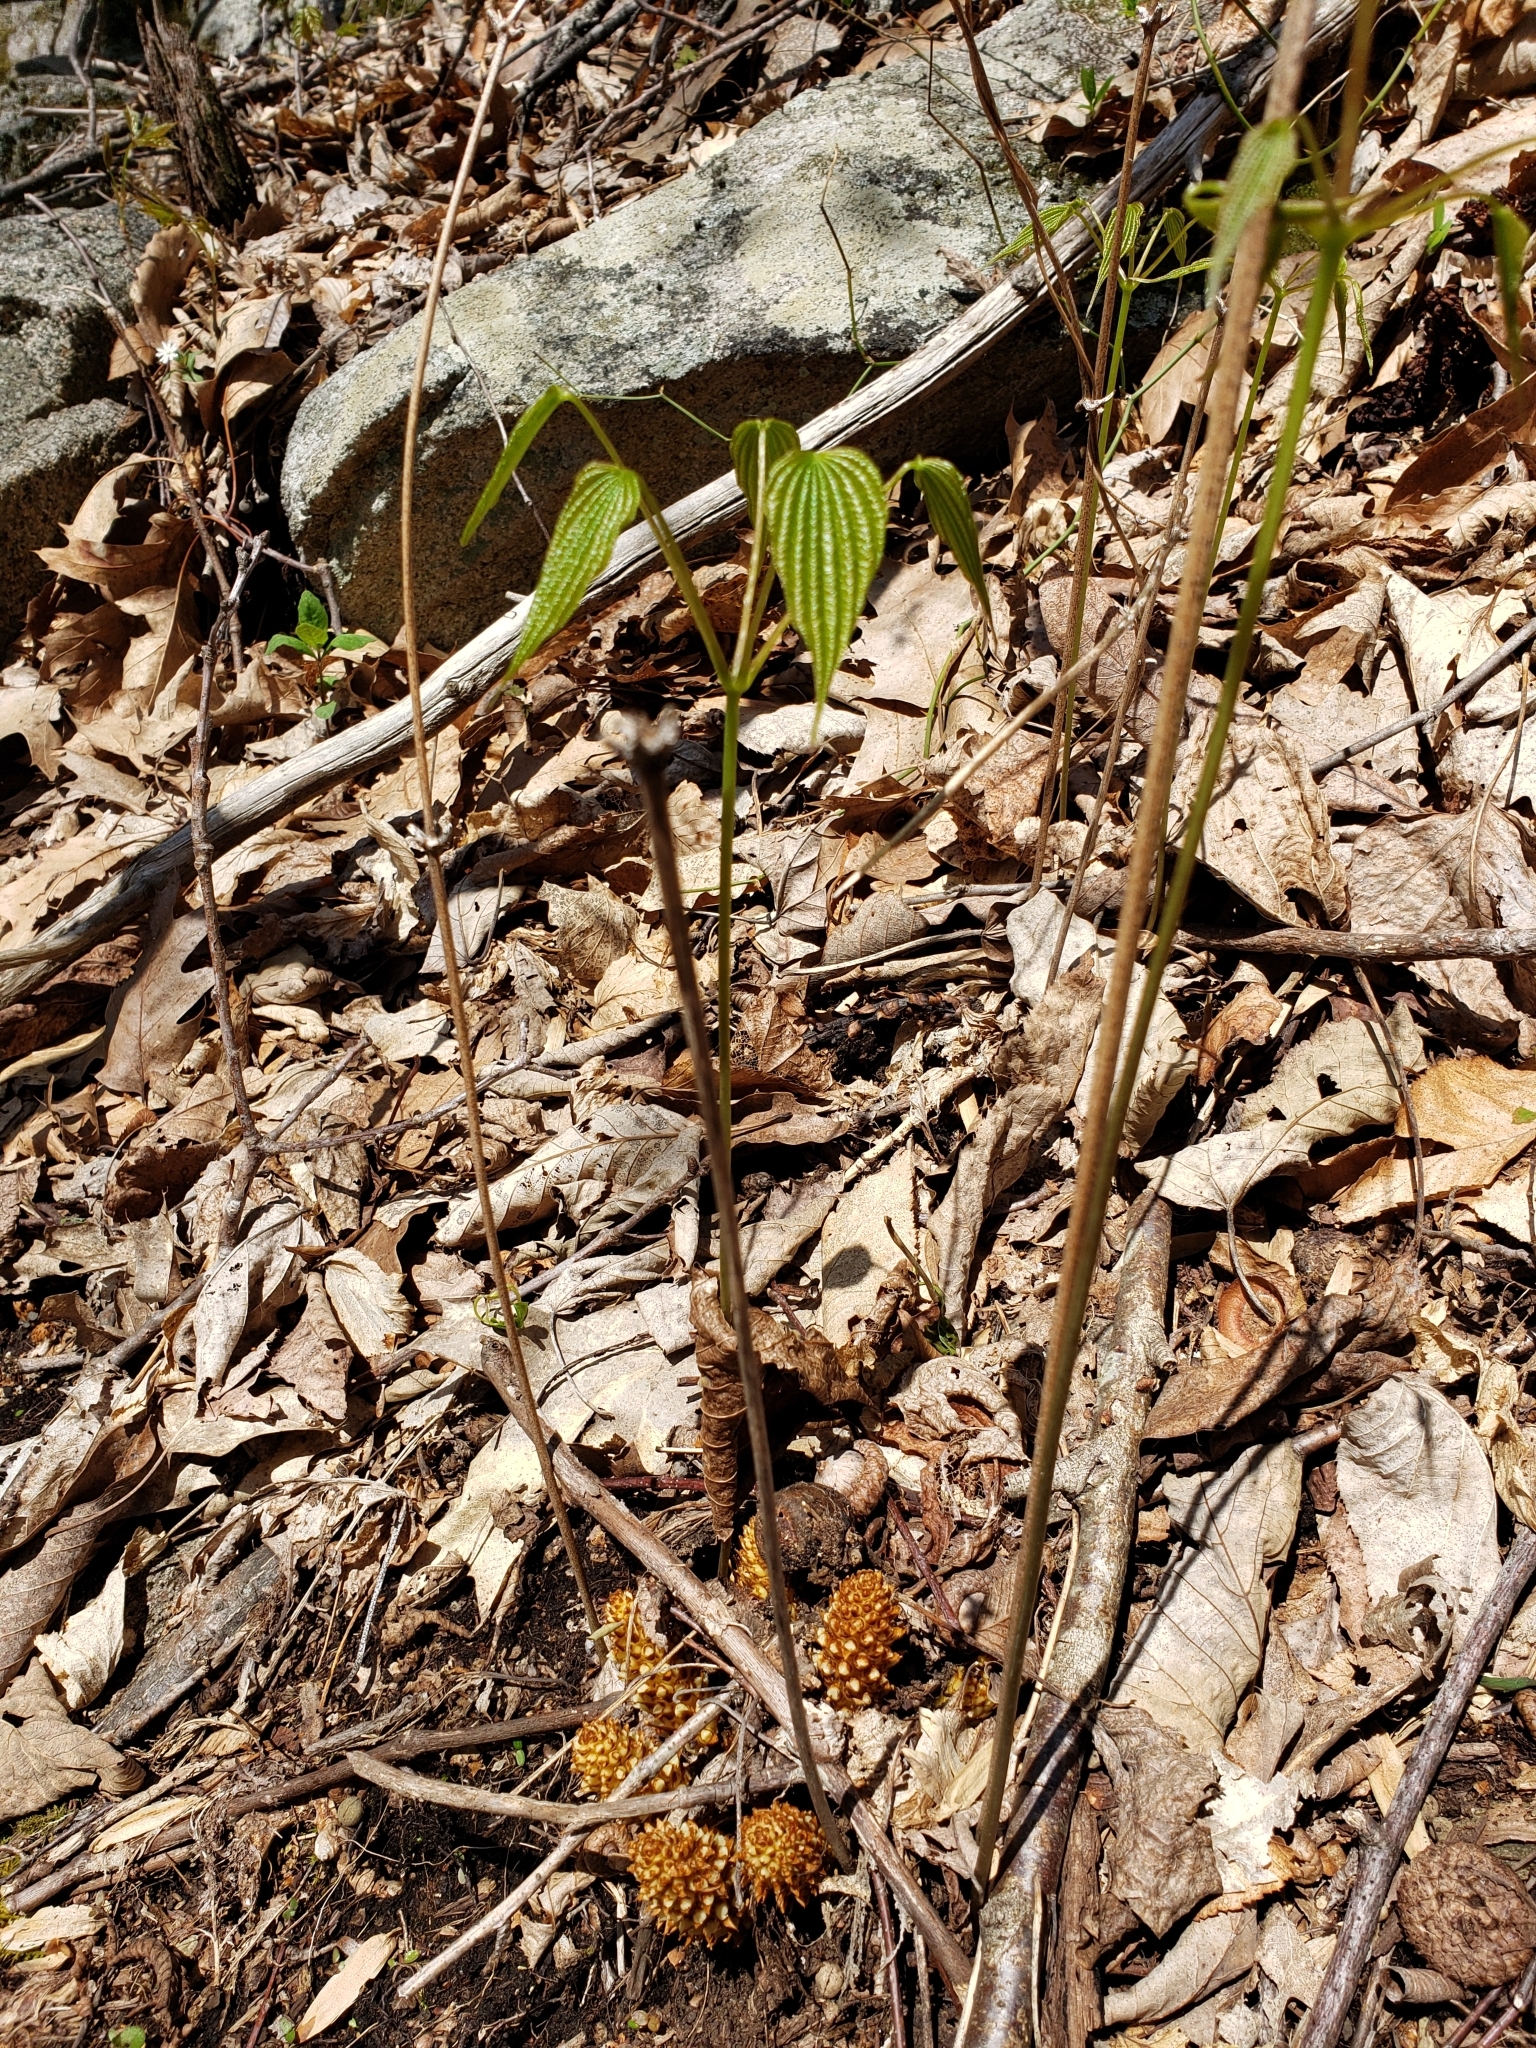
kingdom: Plantae
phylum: Tracheophyta
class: Liliopsida
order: Dioscoreales
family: Dioscoreaceae
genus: Dioscorea
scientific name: Dioscorea villosa
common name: Wild yam
